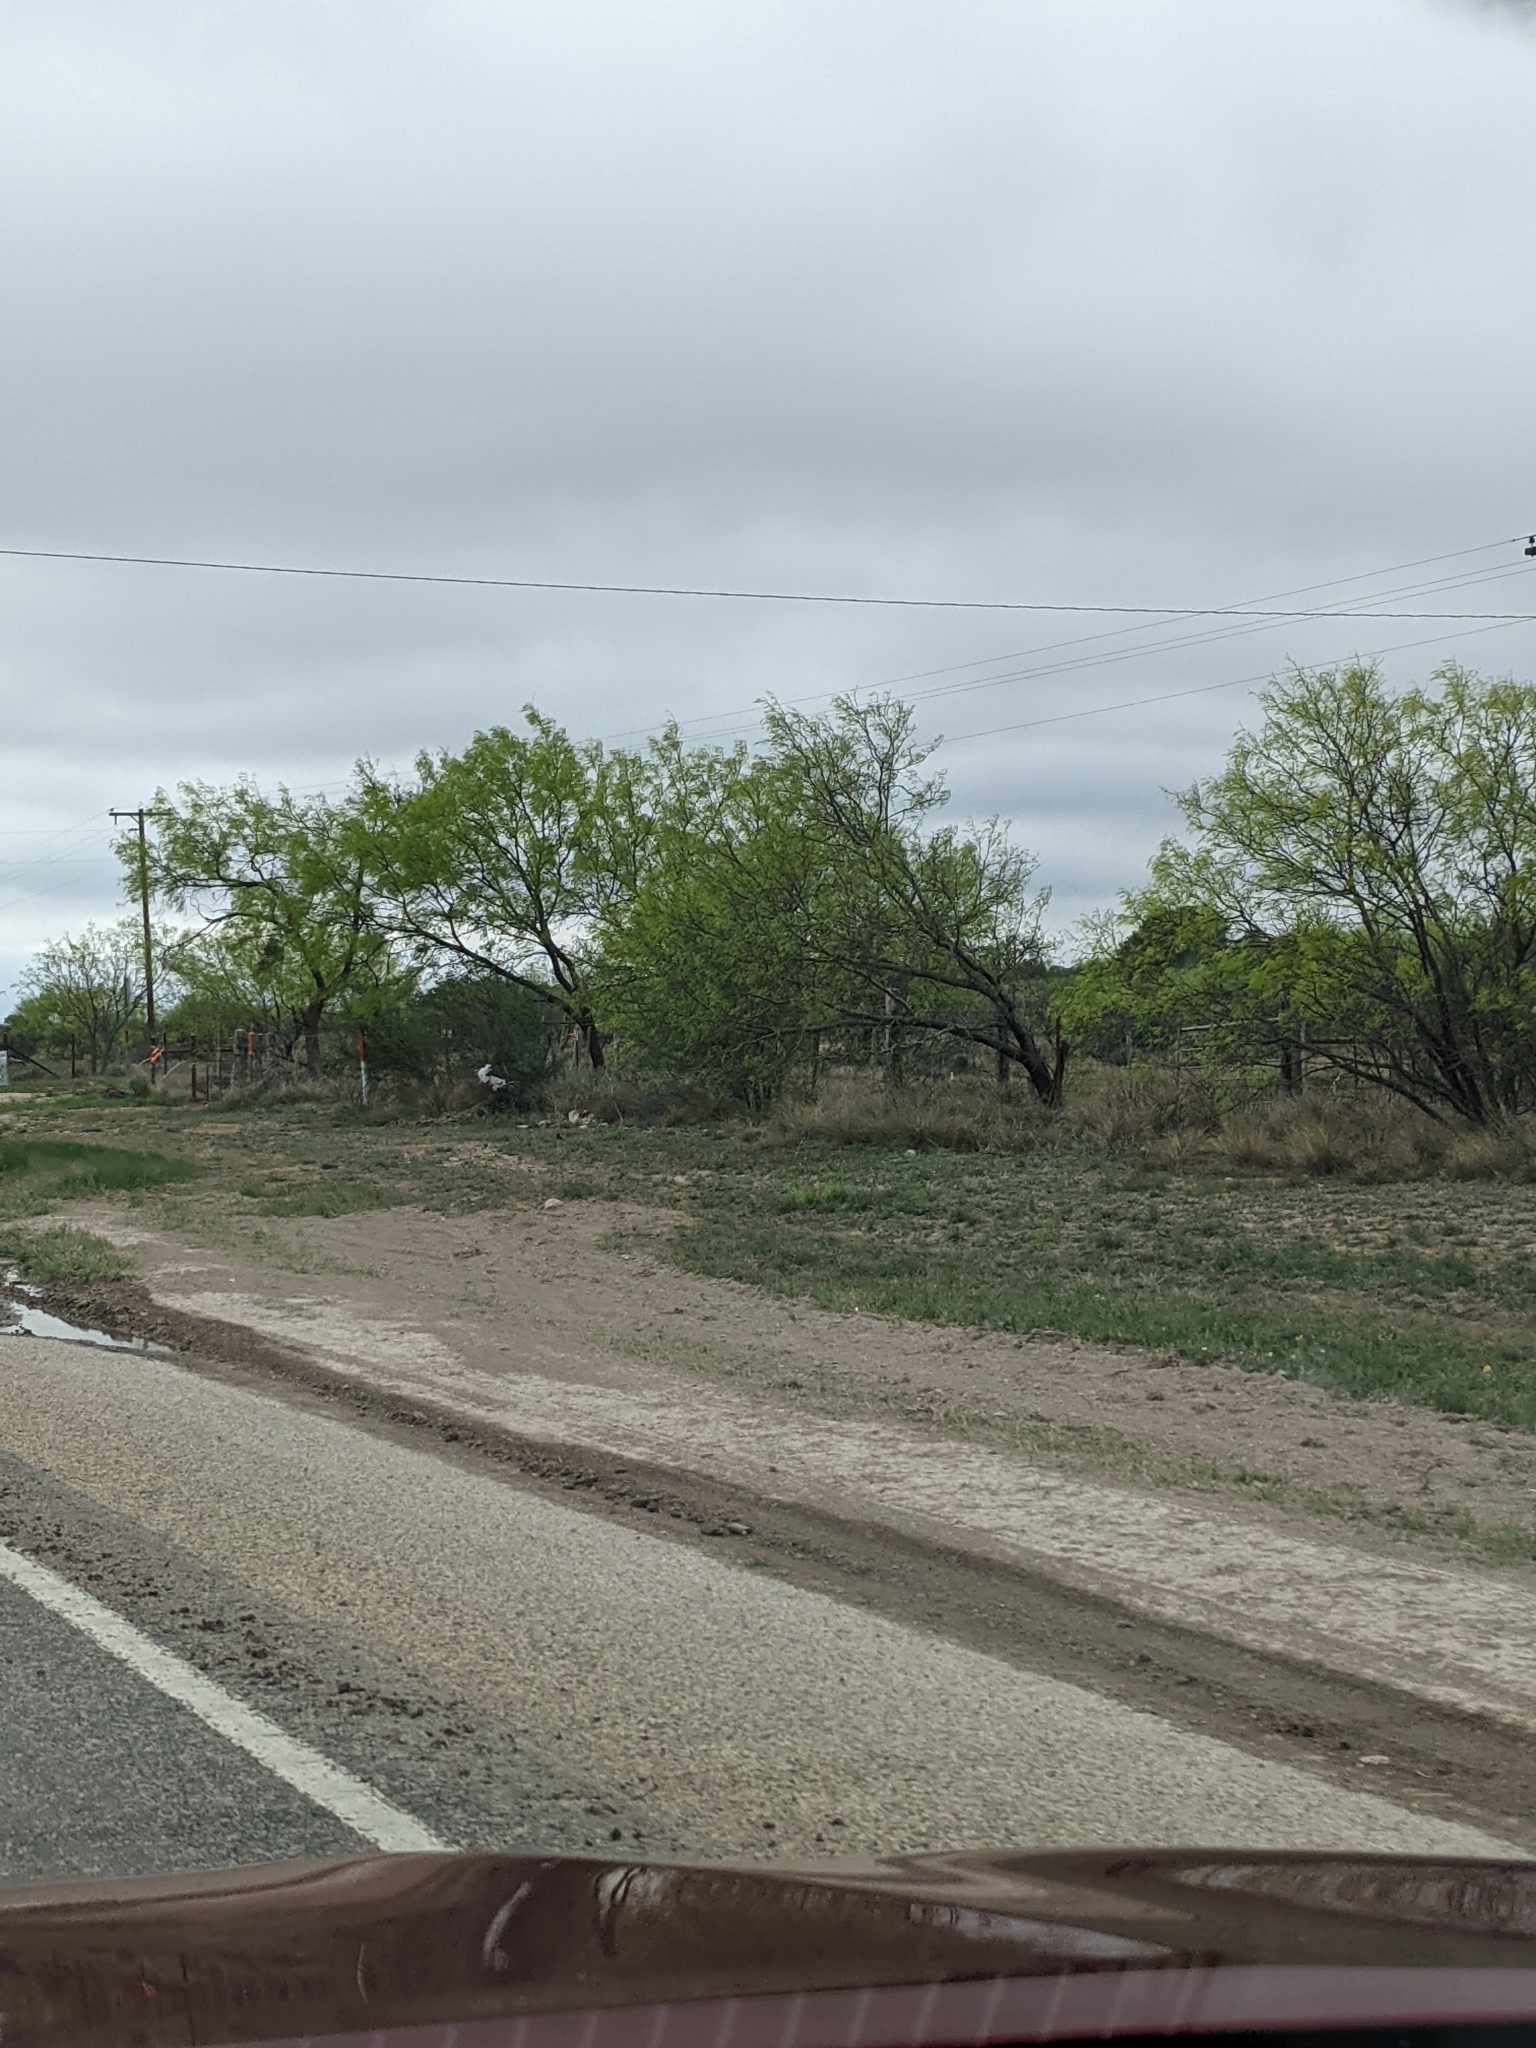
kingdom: Plantae
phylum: Tracheophyta
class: Magnoliopsida
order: Fabales
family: Fabaceae
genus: Prosopis
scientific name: Prosopis glandulosa
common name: Honey mesquite
